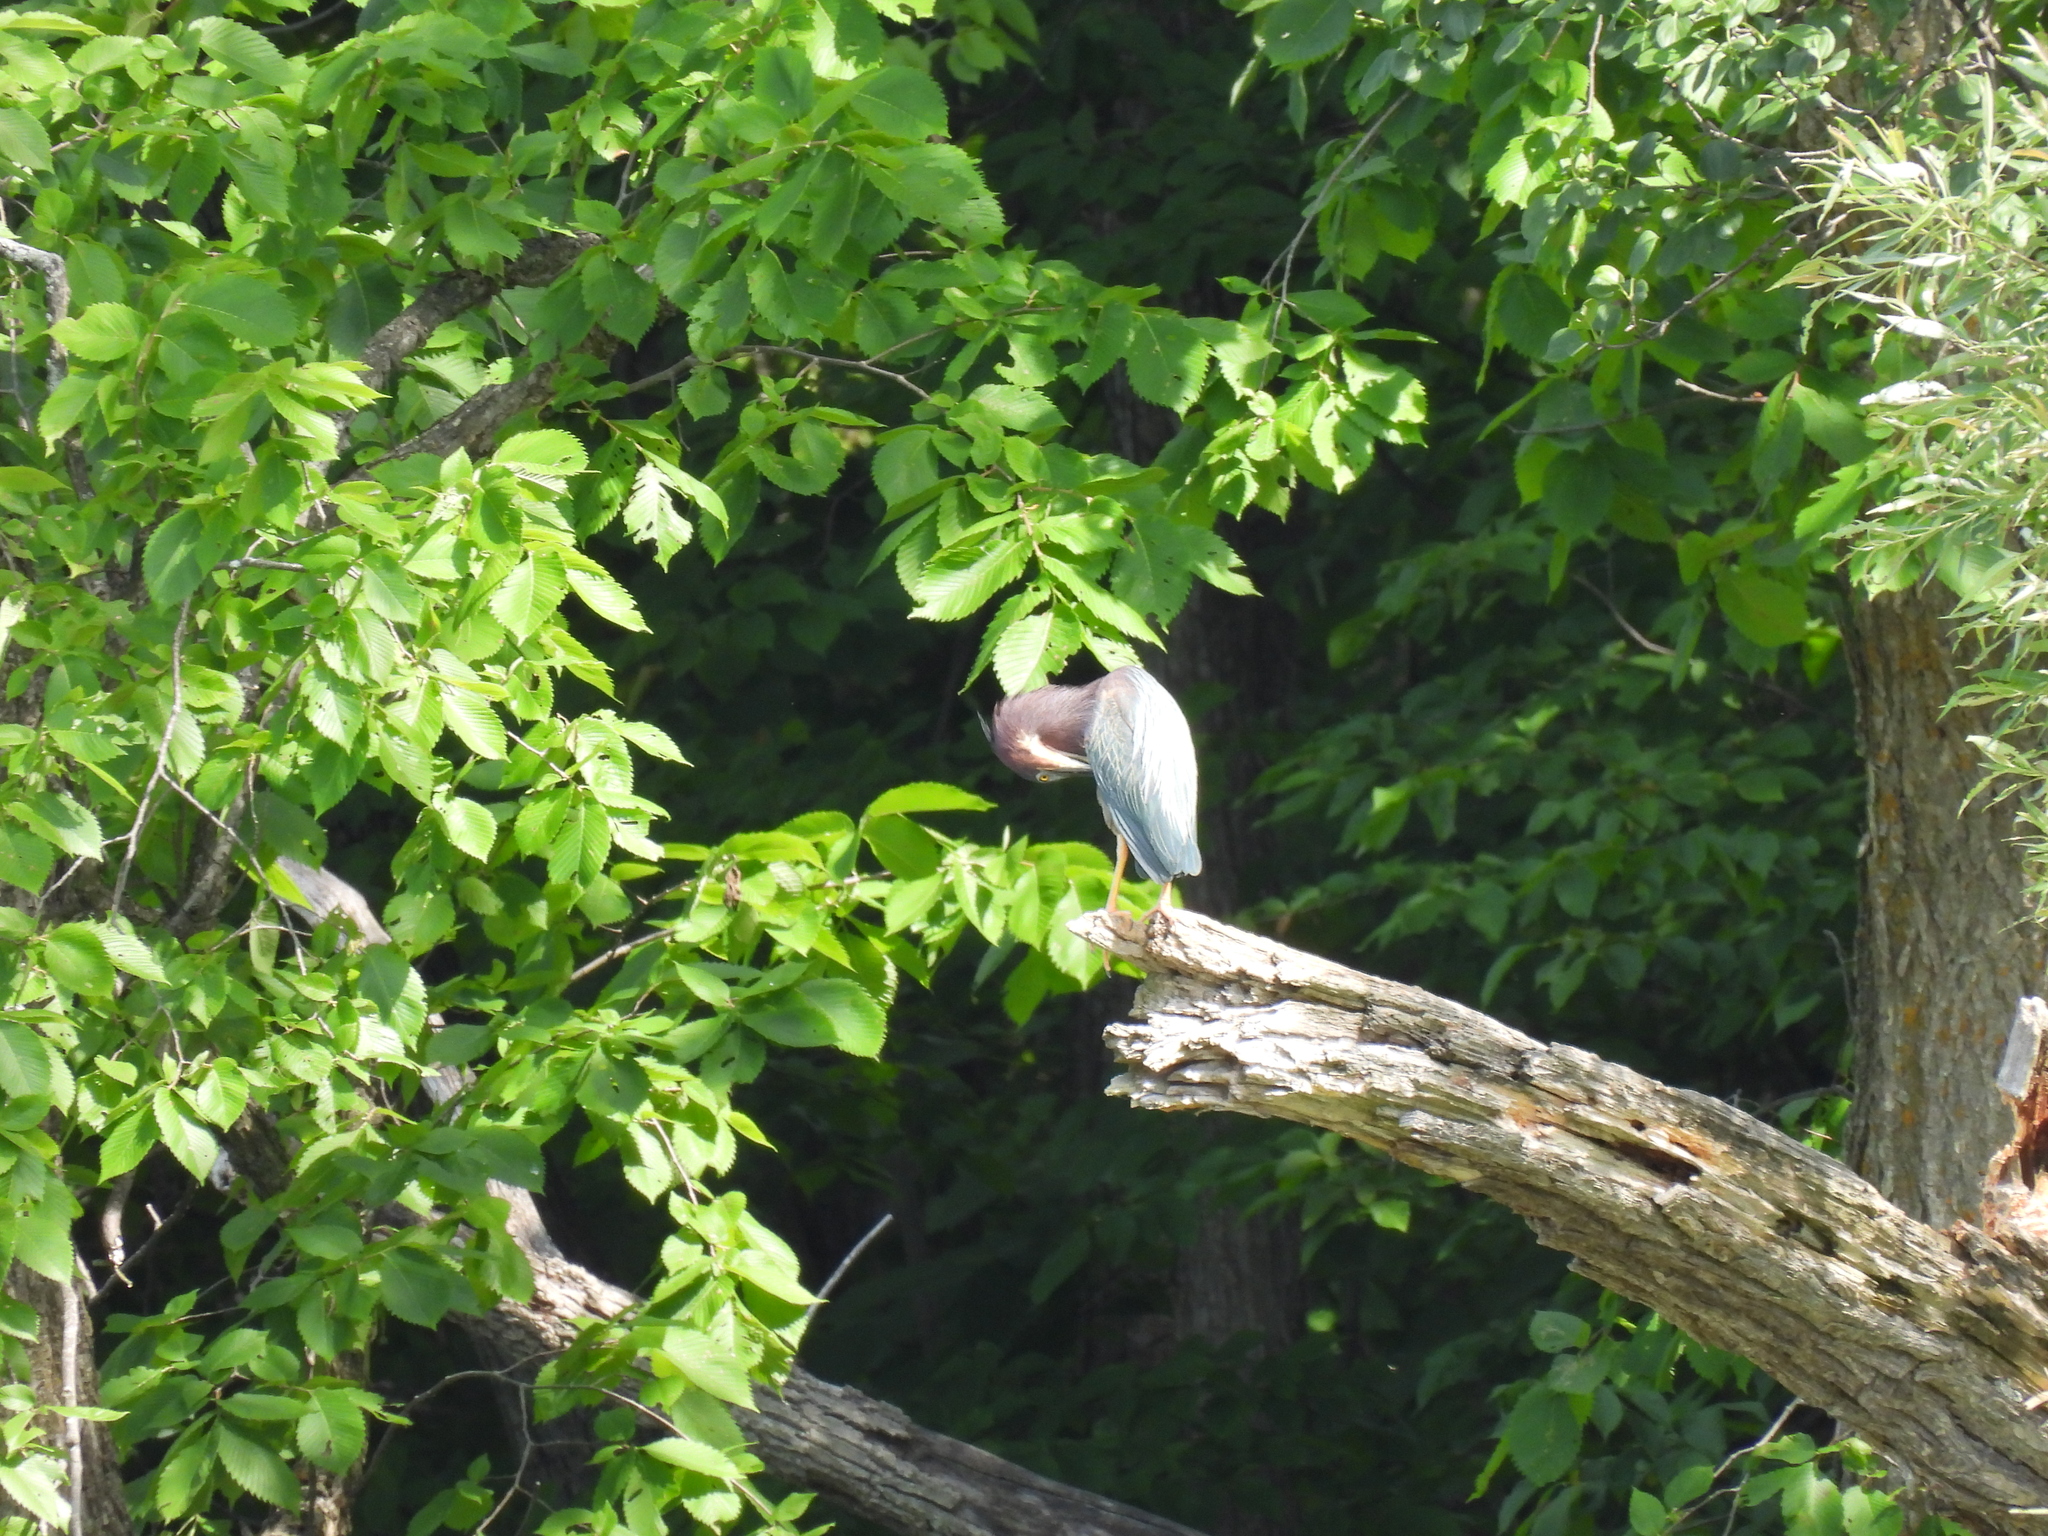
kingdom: Animalia
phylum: Chordata
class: Aves
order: Pelecaniformes
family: Ardeidae
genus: Butorides
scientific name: Butorides virescens
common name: Green heron
